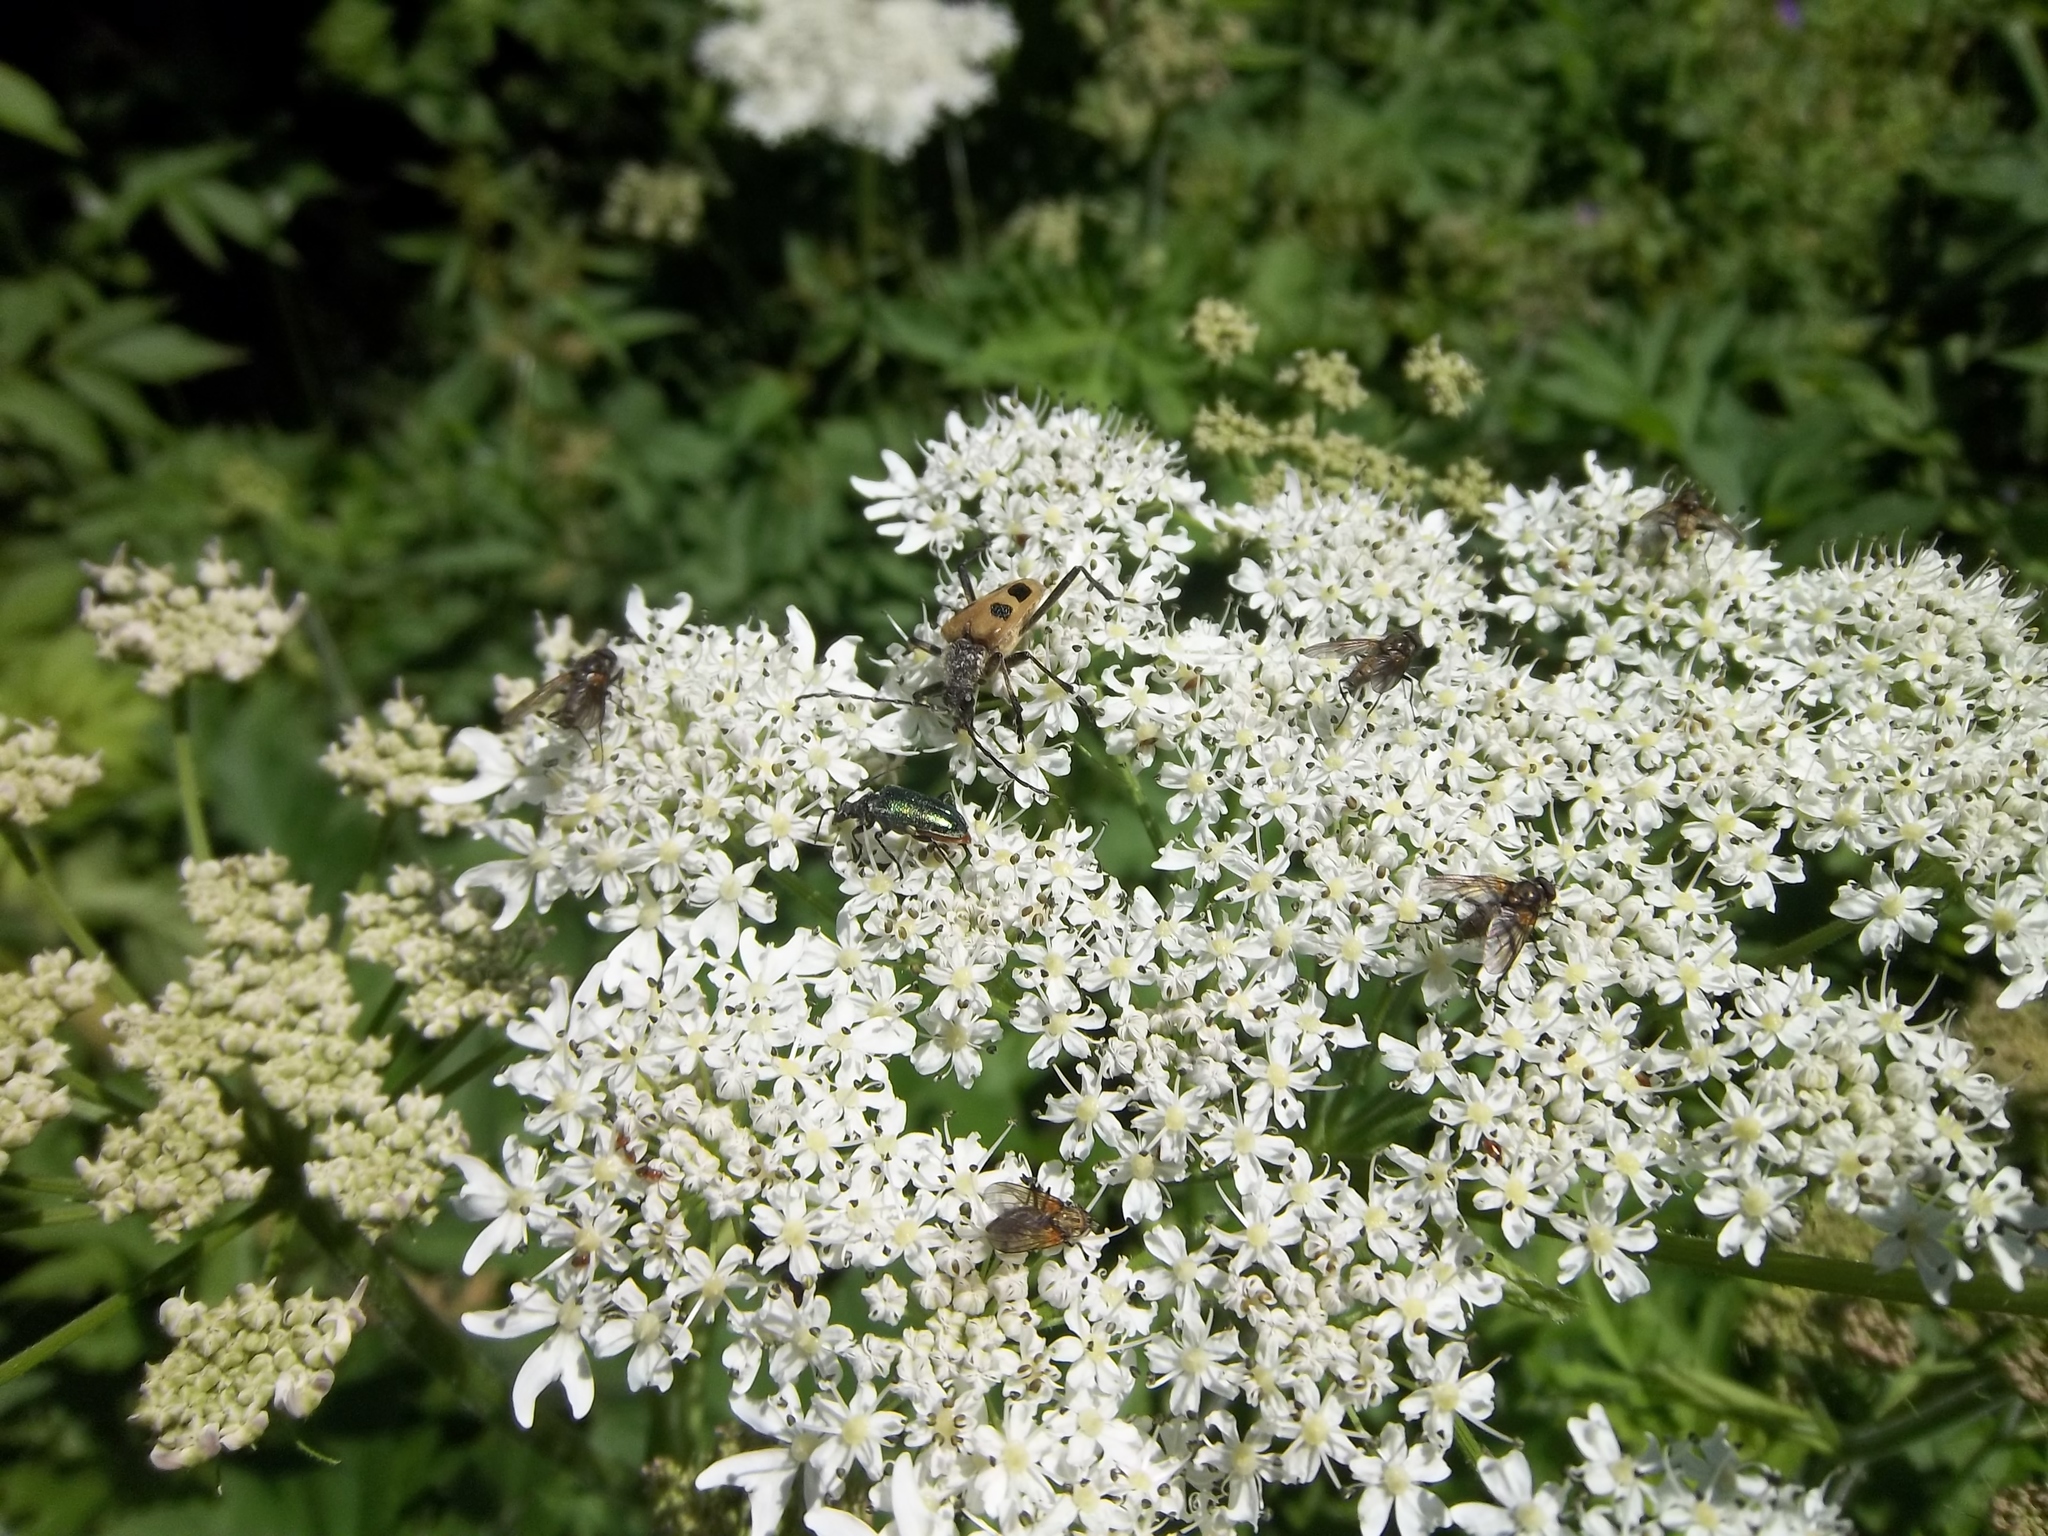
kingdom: Plantae
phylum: Tracheophyta
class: Magnoliopsida
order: Apiales
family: Apiaceae
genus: Daucus
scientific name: Daucus carota
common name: Wild carrot
